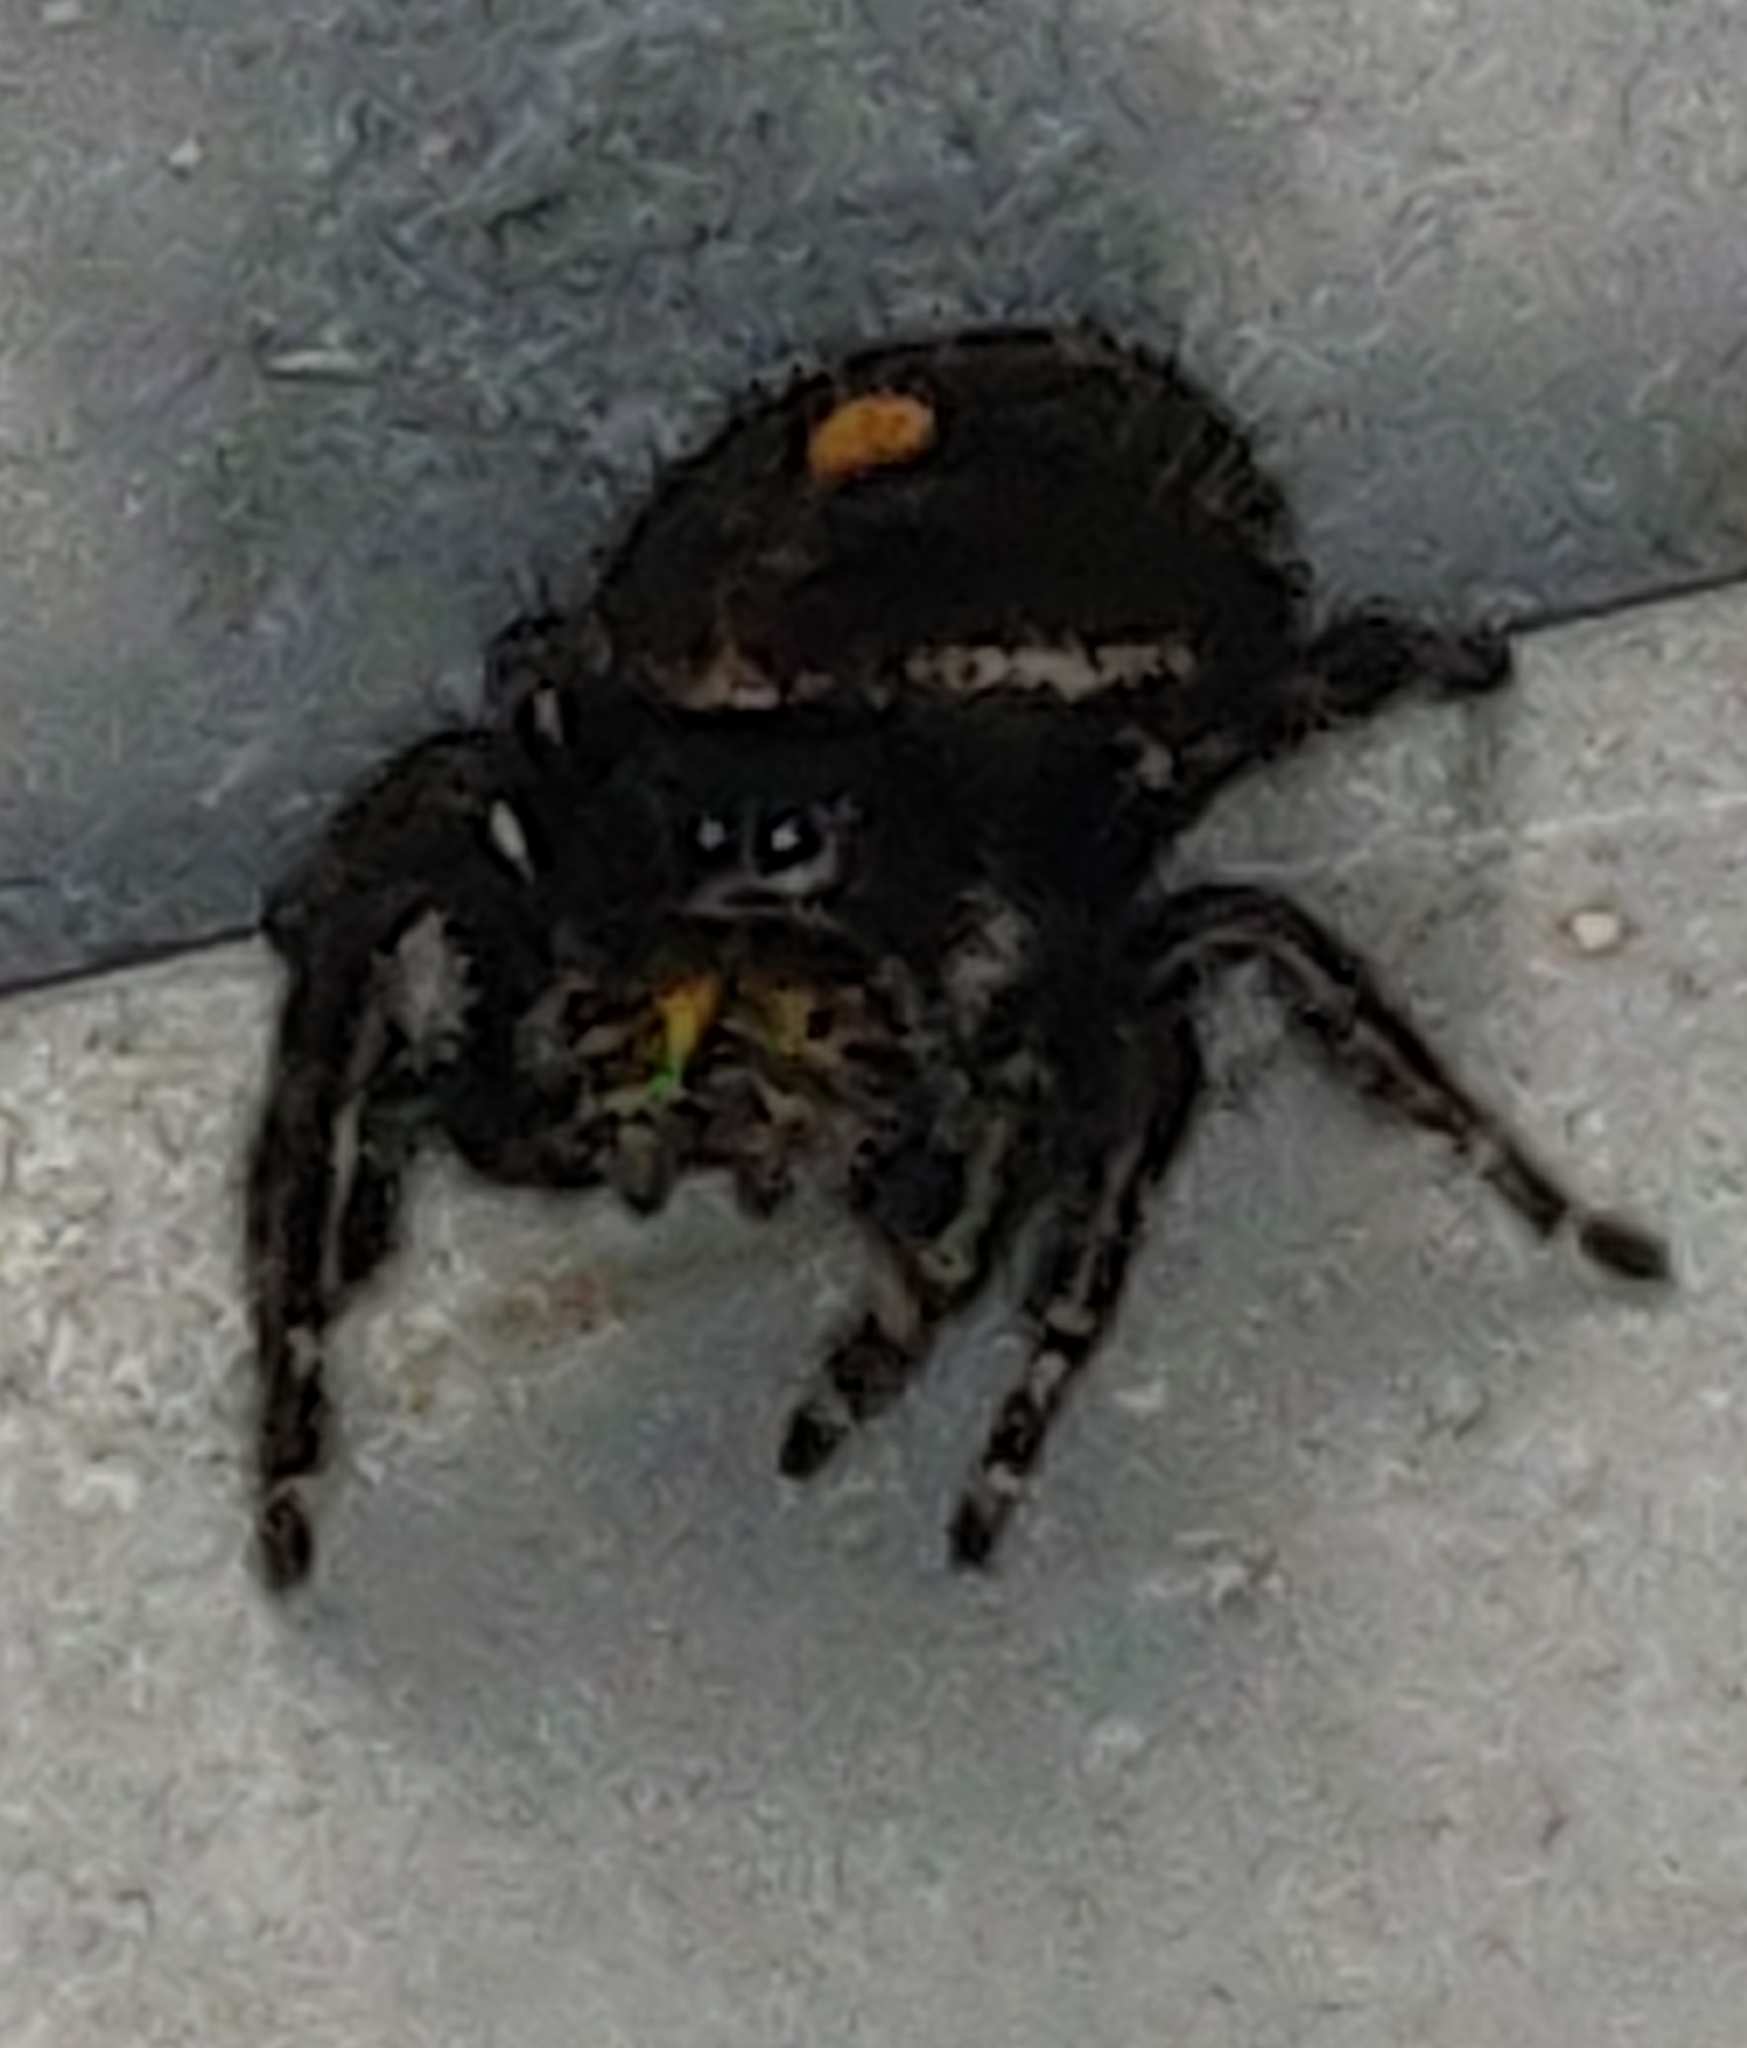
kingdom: Animalia
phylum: Arthropoda
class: Arachnida
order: Araneae
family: Salticidae
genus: Phidippus
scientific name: Phidippus audax
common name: Bold jumper
